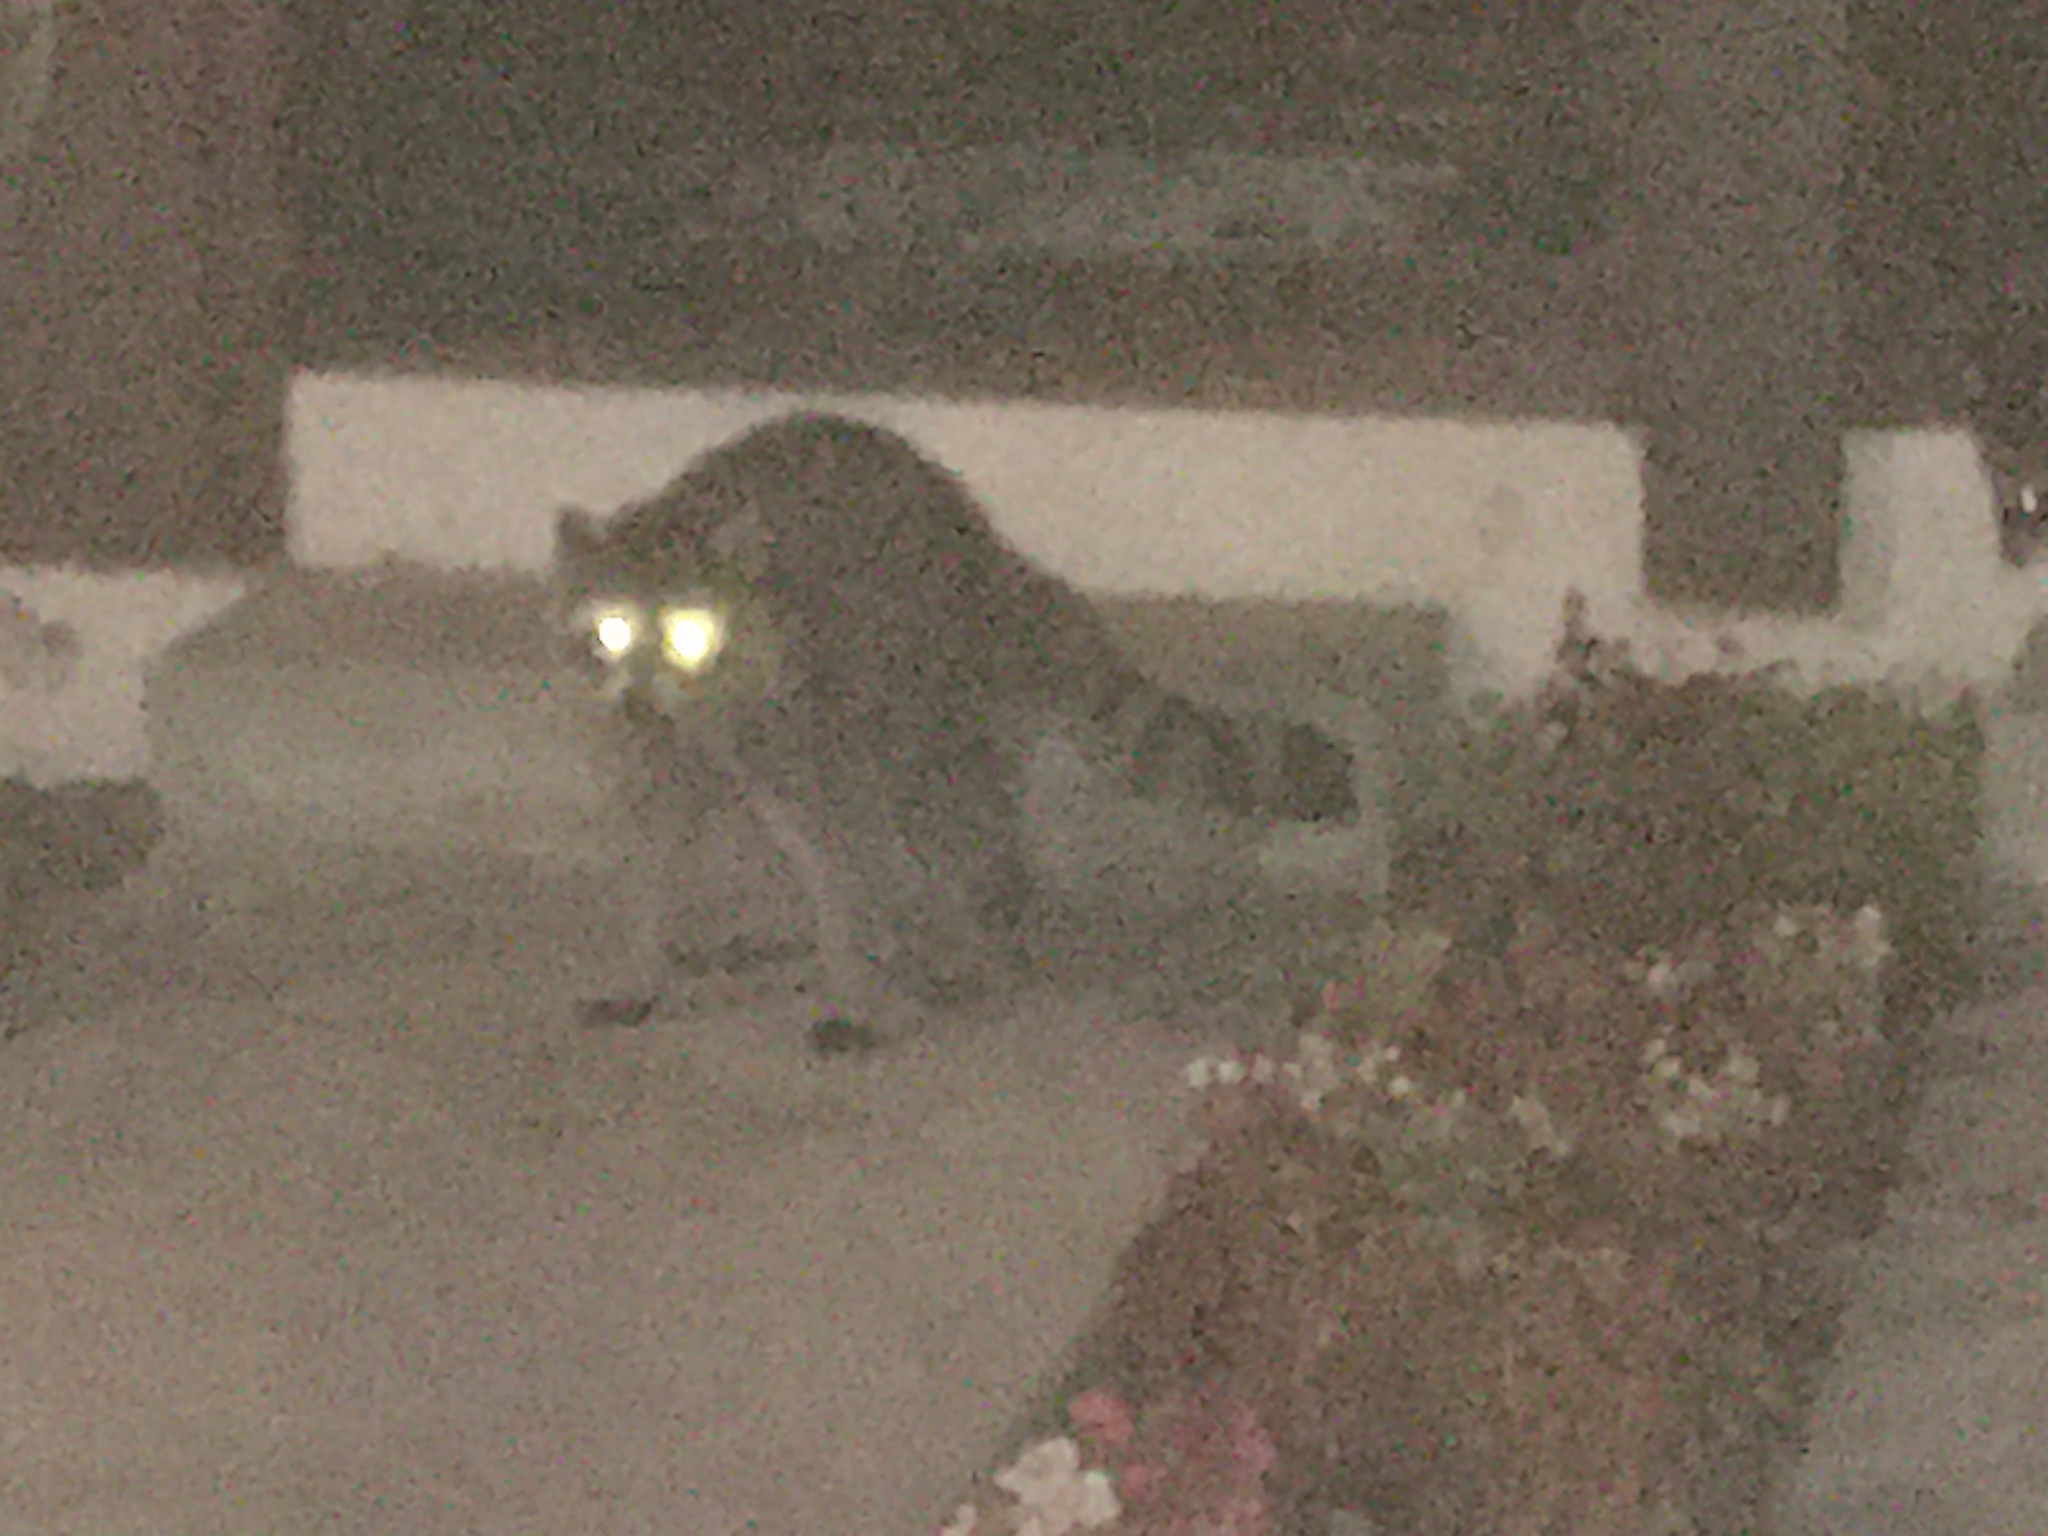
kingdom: Animalia
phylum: Chordata
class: Mammalia
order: Carnivora
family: Procyonidae
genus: Procyon
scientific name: Procyon lotor
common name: Raccoon
